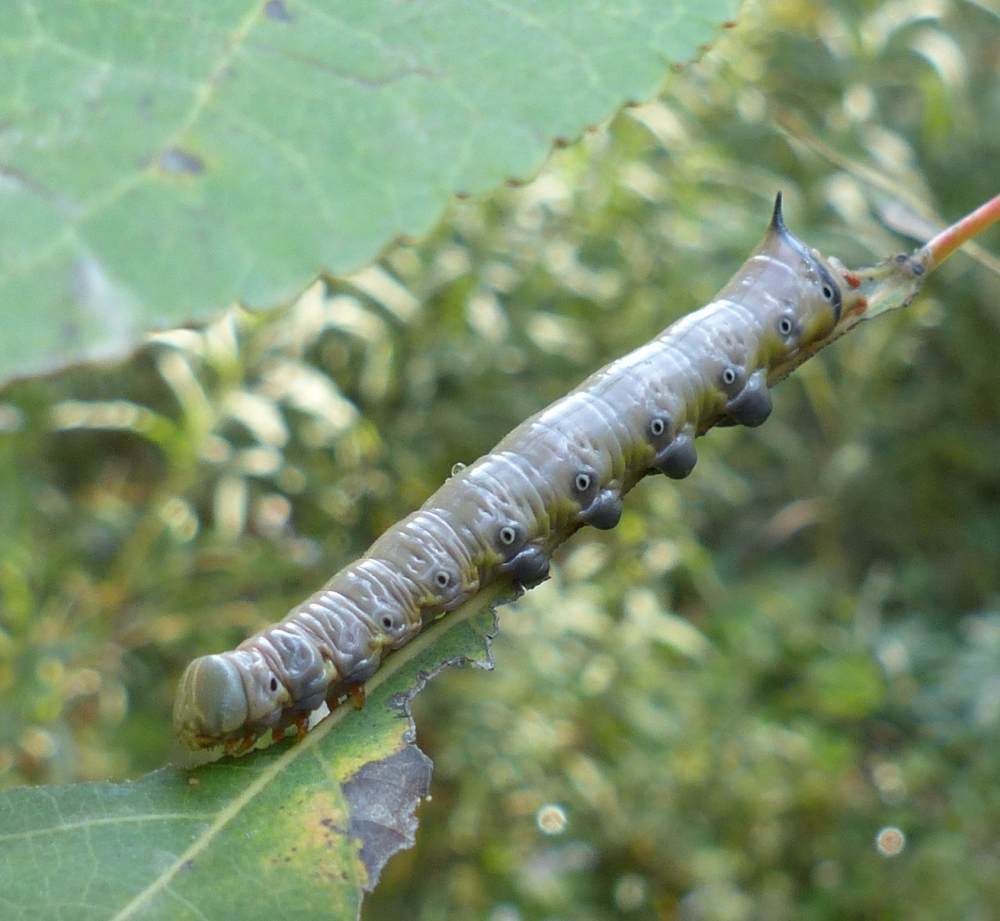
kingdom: Animalia
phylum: Arthropoda
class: Insecta
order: Lepidoptera
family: Notodontidae
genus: Pheosia
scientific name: Pheosia rimosa
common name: Black-rimmed prominent
